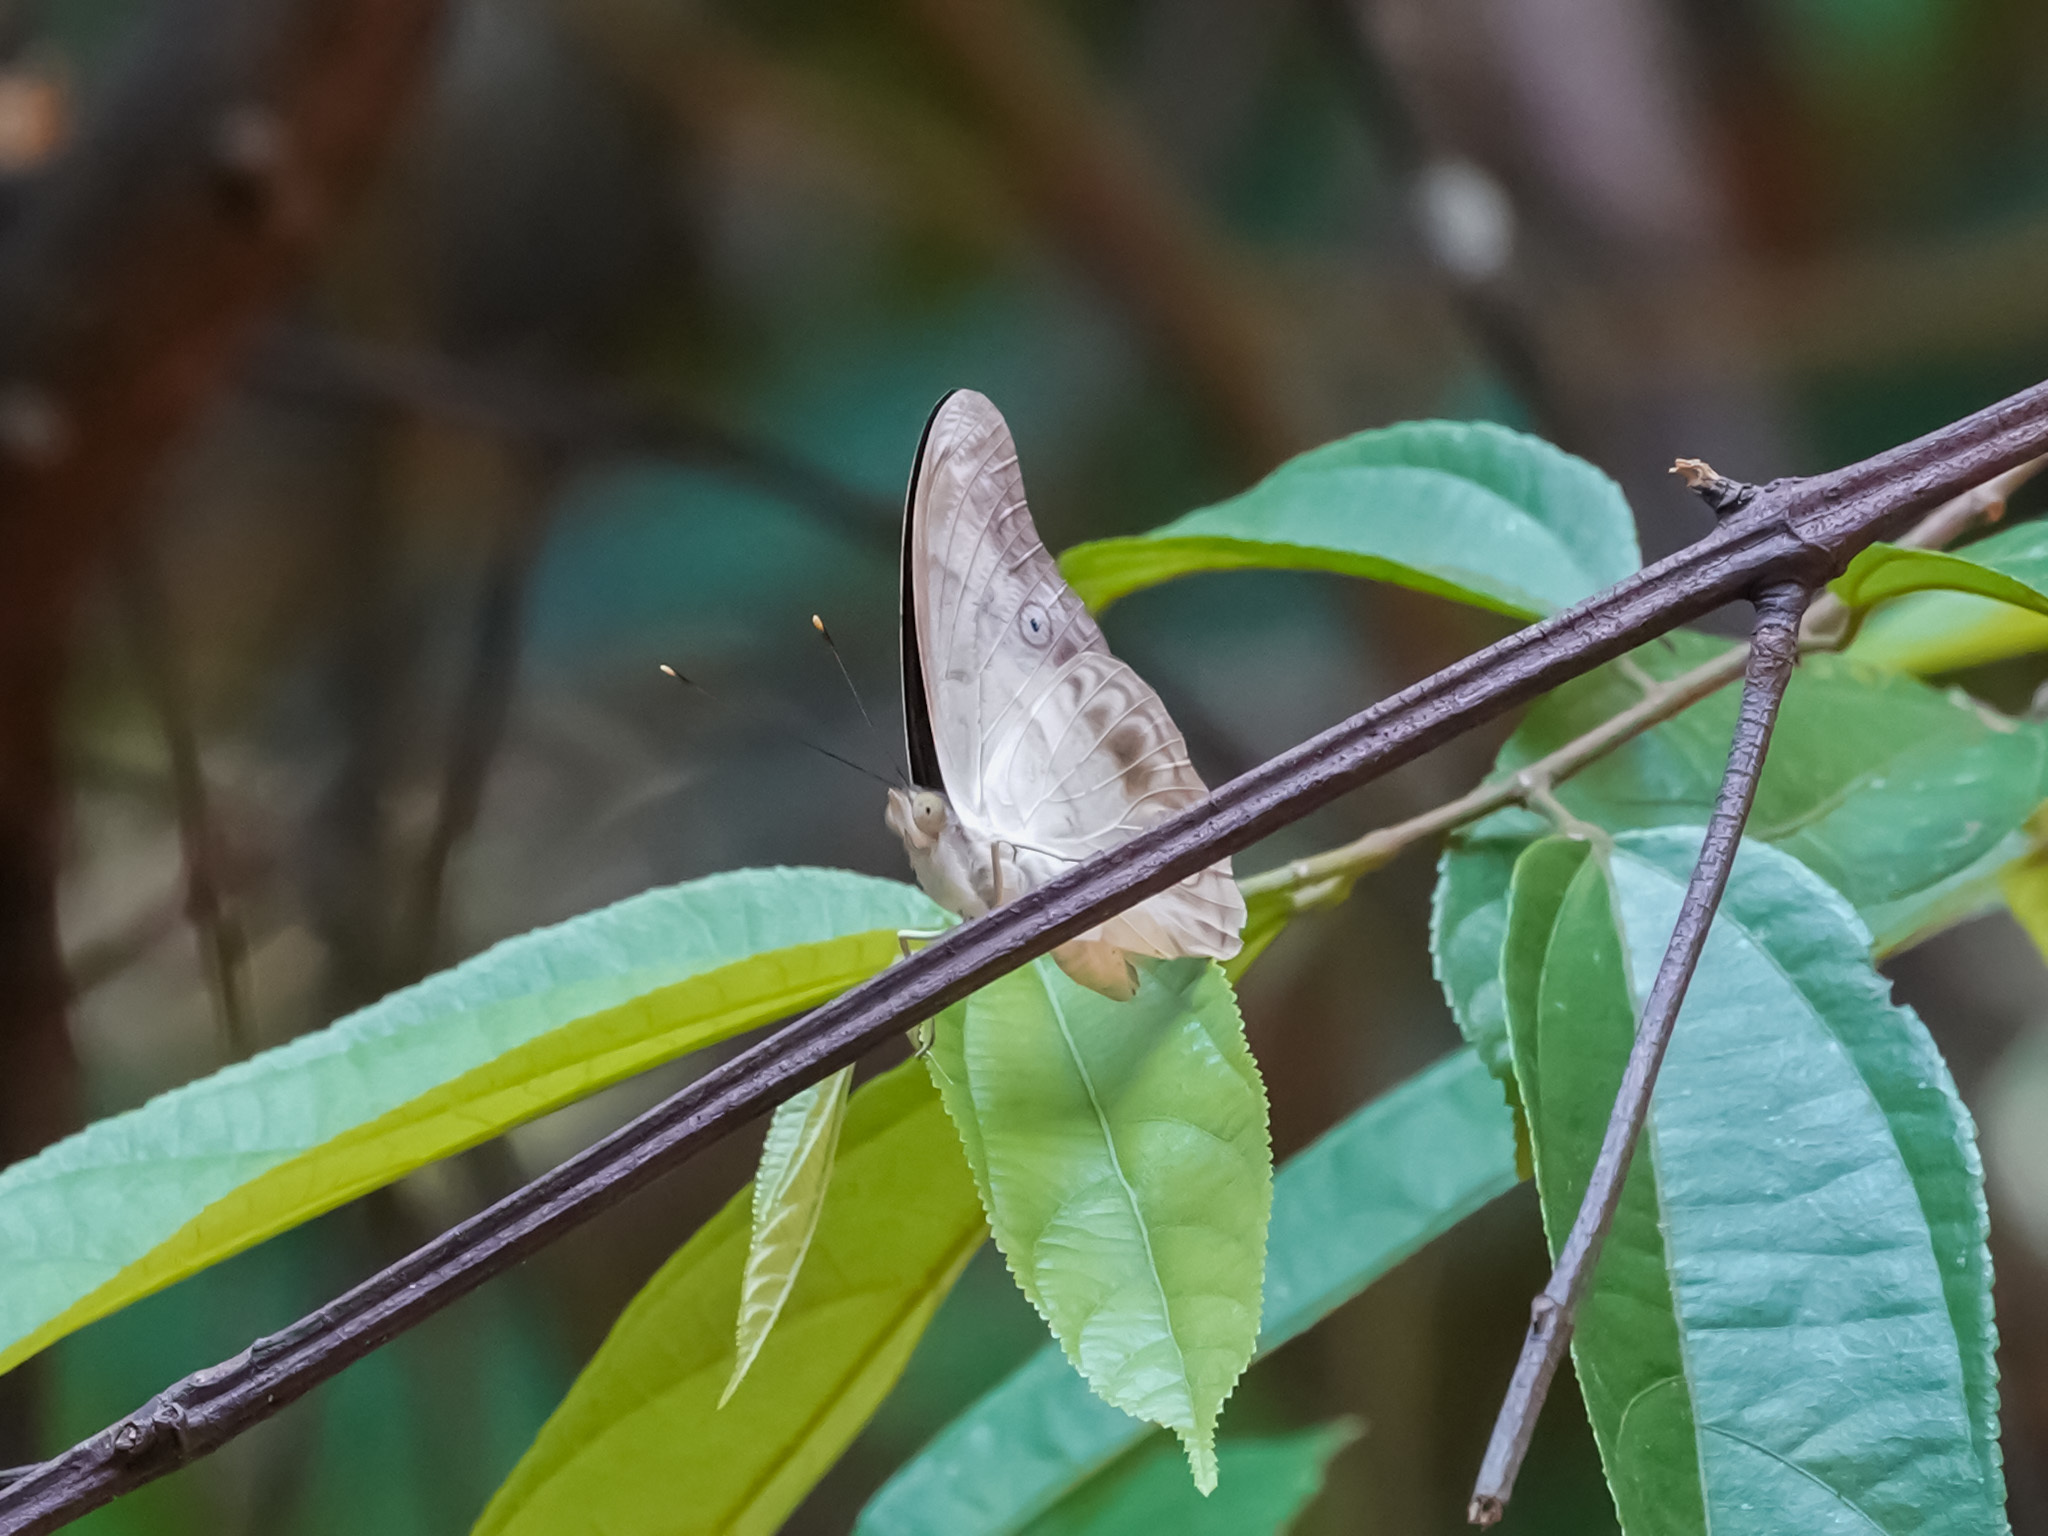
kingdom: Animalia
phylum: Arthropoda
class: Insecta
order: Lepidoptera
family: Nymphalidae
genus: Eulaceura
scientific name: Eulaceura osteria
